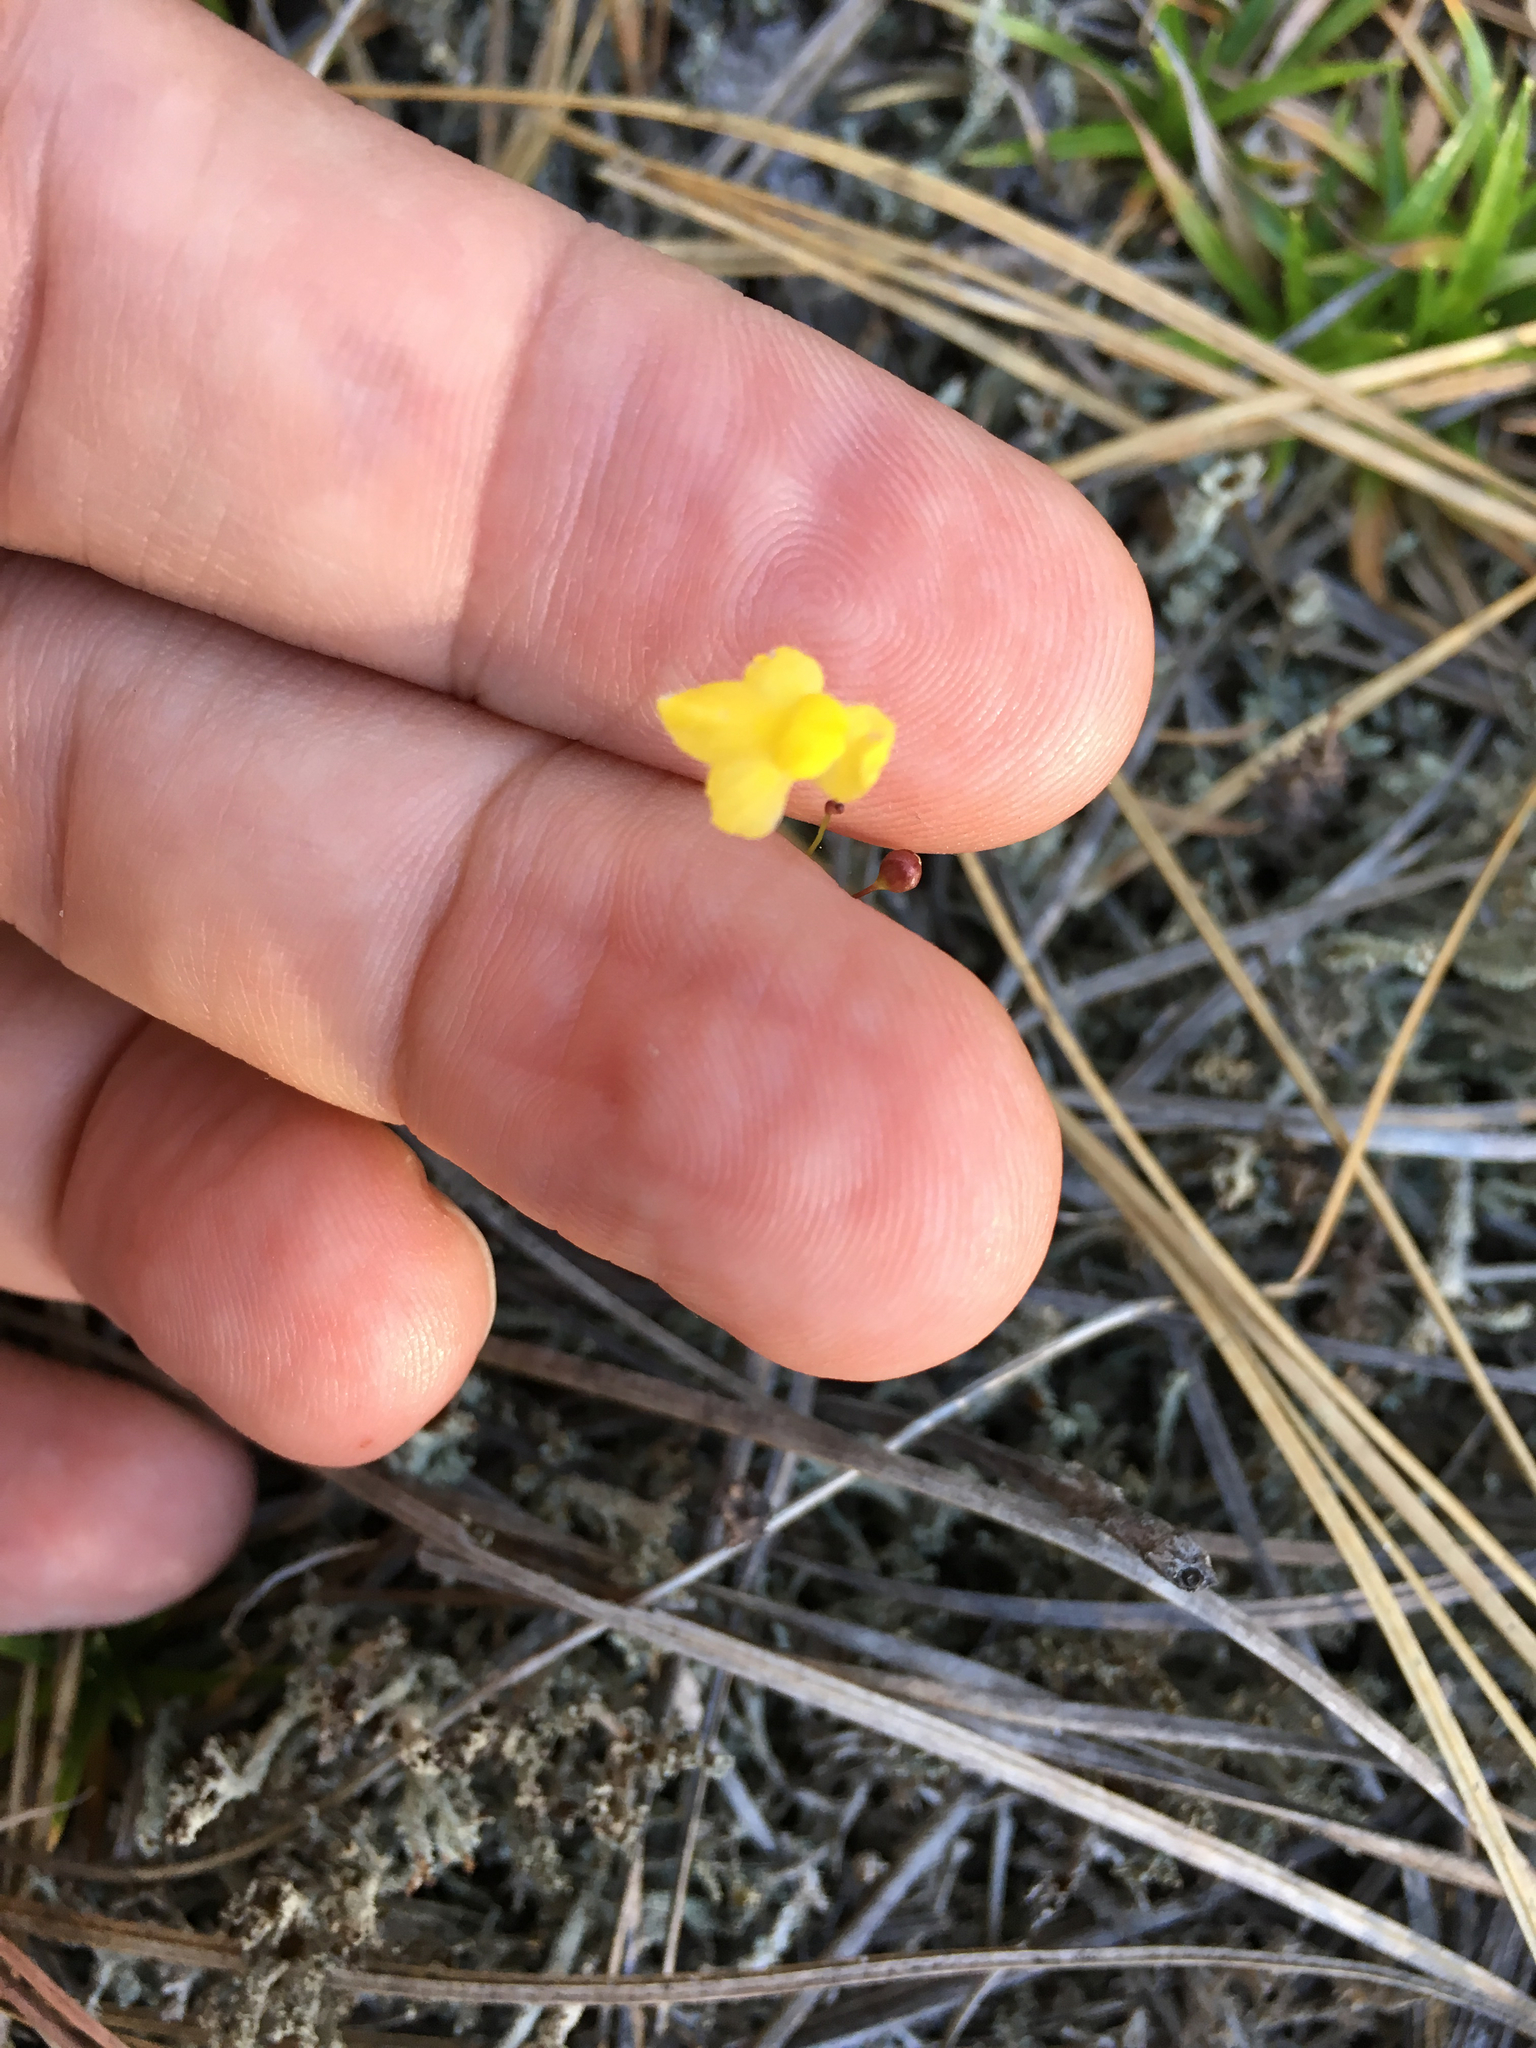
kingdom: Plantae
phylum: Tracheophyta
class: Magnoliopsida
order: Lamiales
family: Lentibulariaceae
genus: Utricularia
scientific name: Utricularia subulata
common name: Tiny bladderwort
